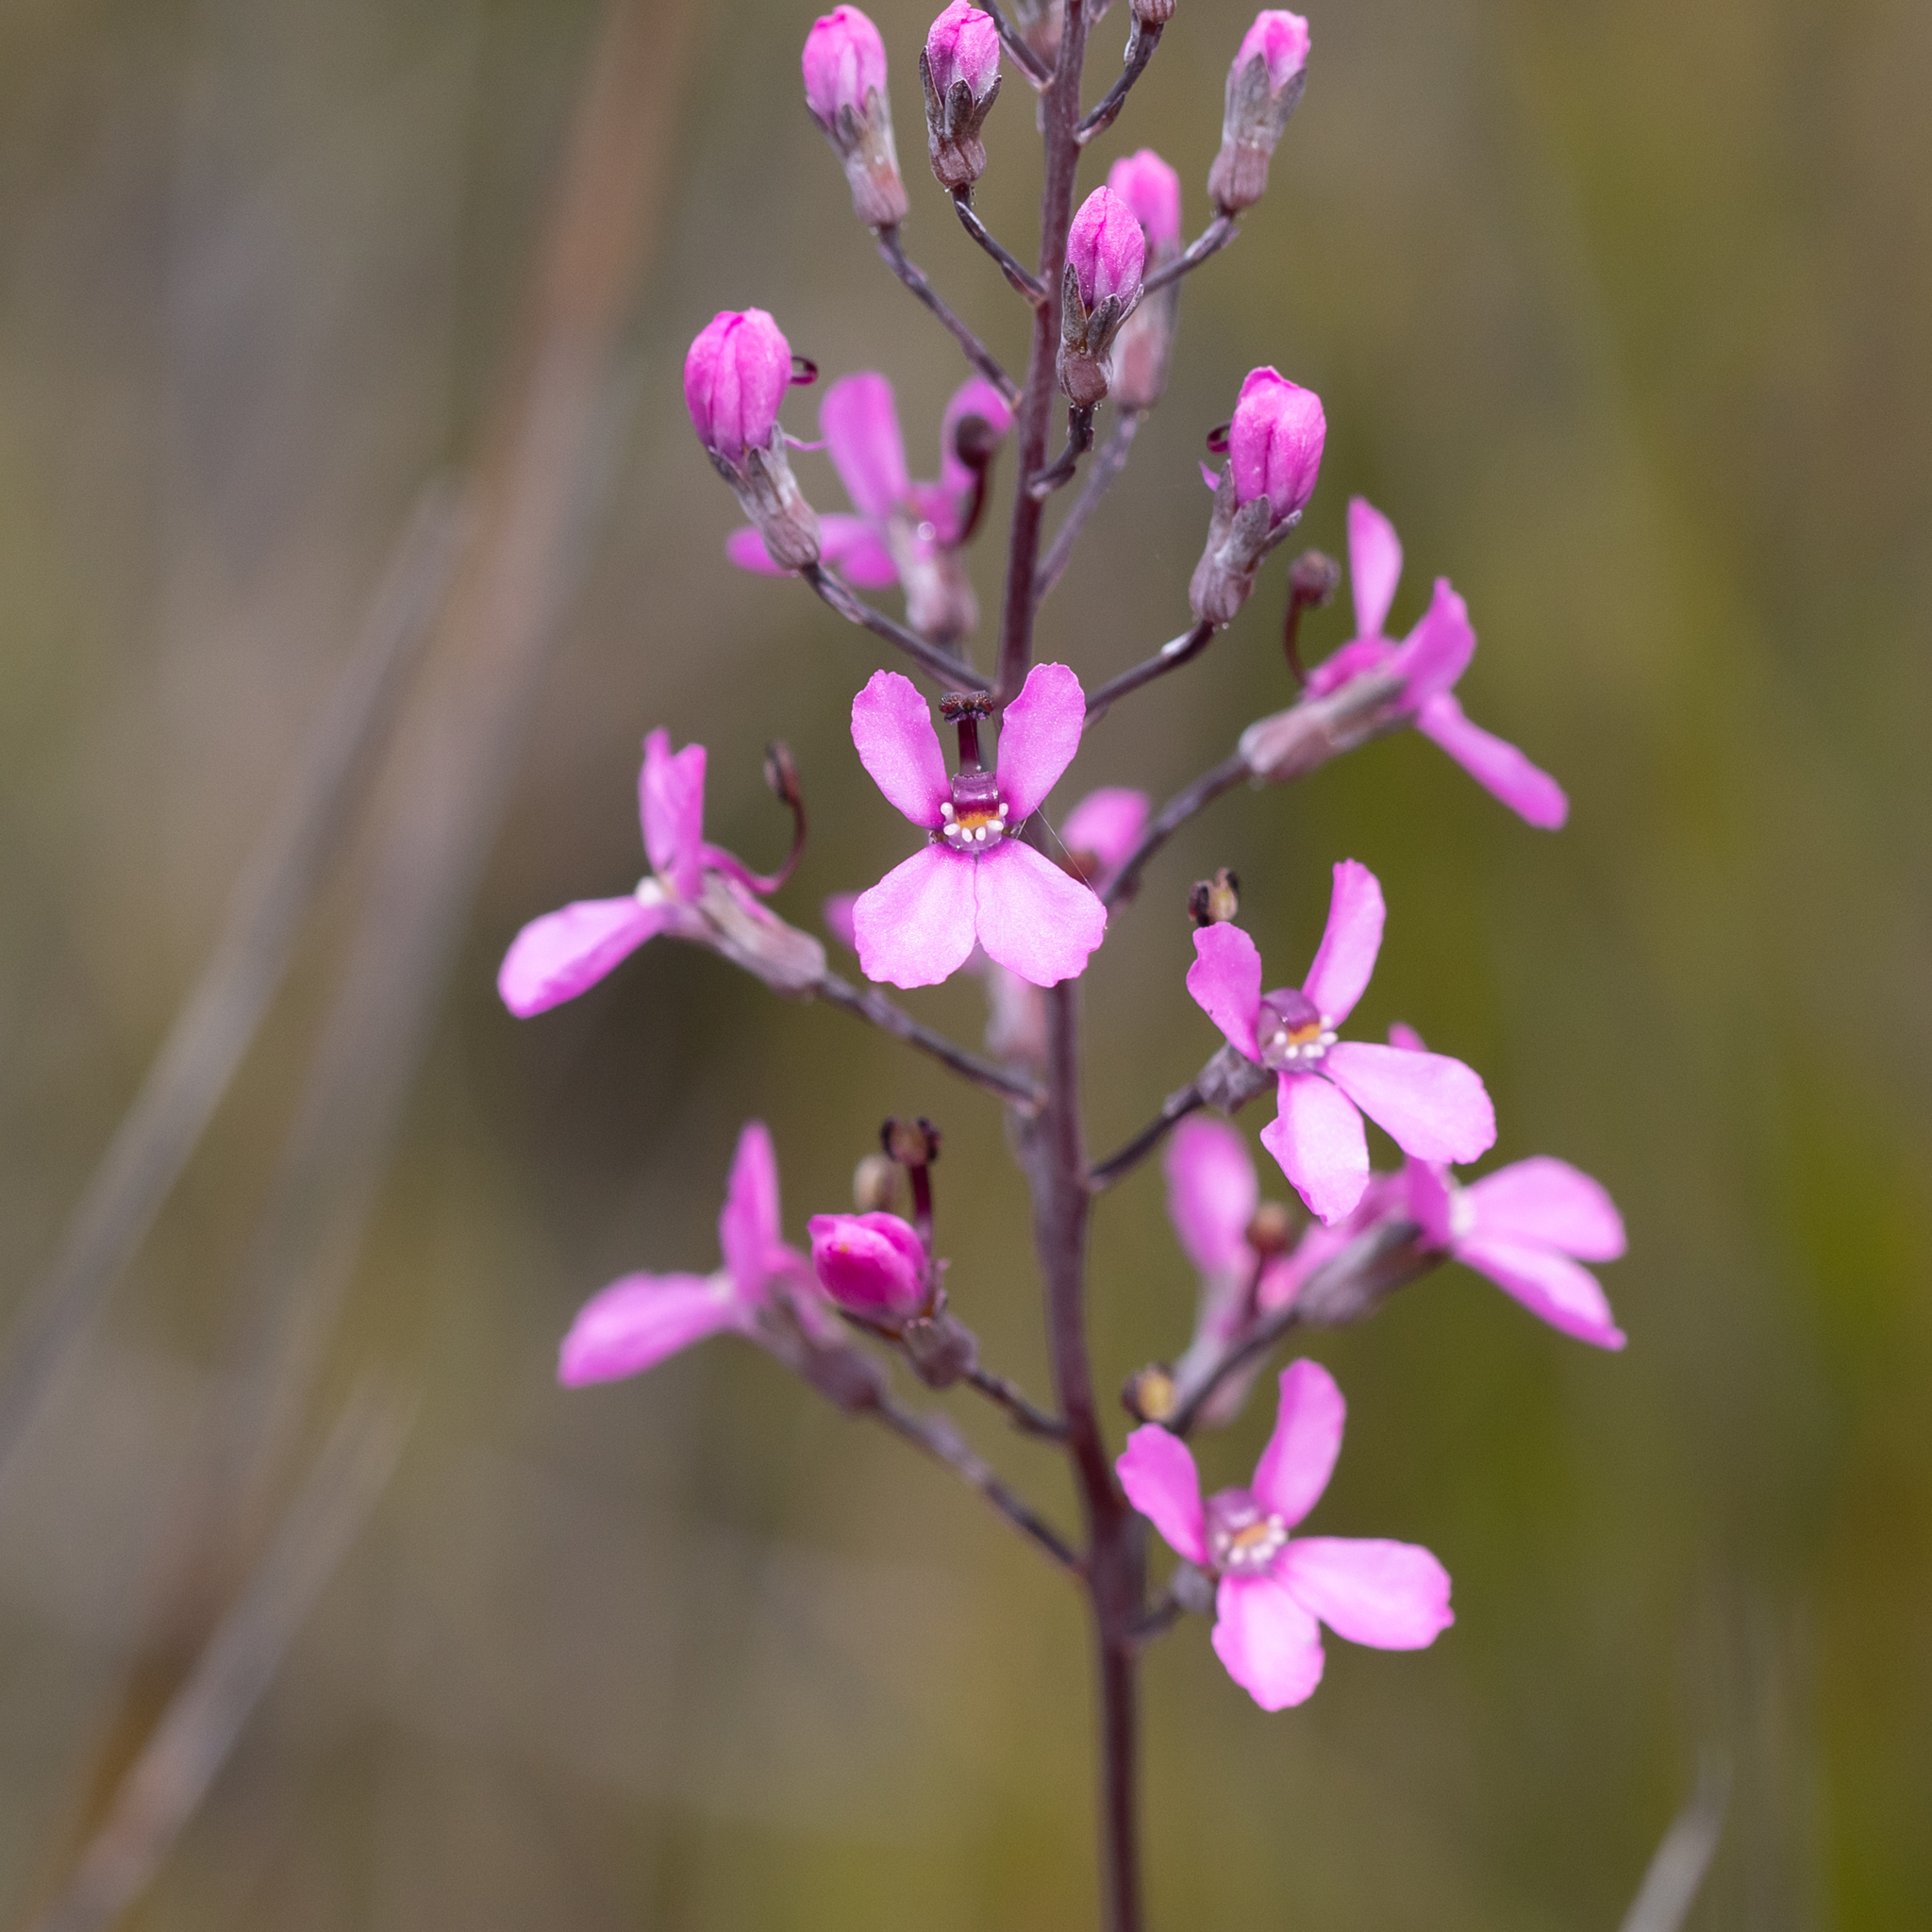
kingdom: Plantae
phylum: Tracheophyta
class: Magnoliopsida
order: Asterales
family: Stylidiaceae
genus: Stylidium
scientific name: Stylidium tenue
